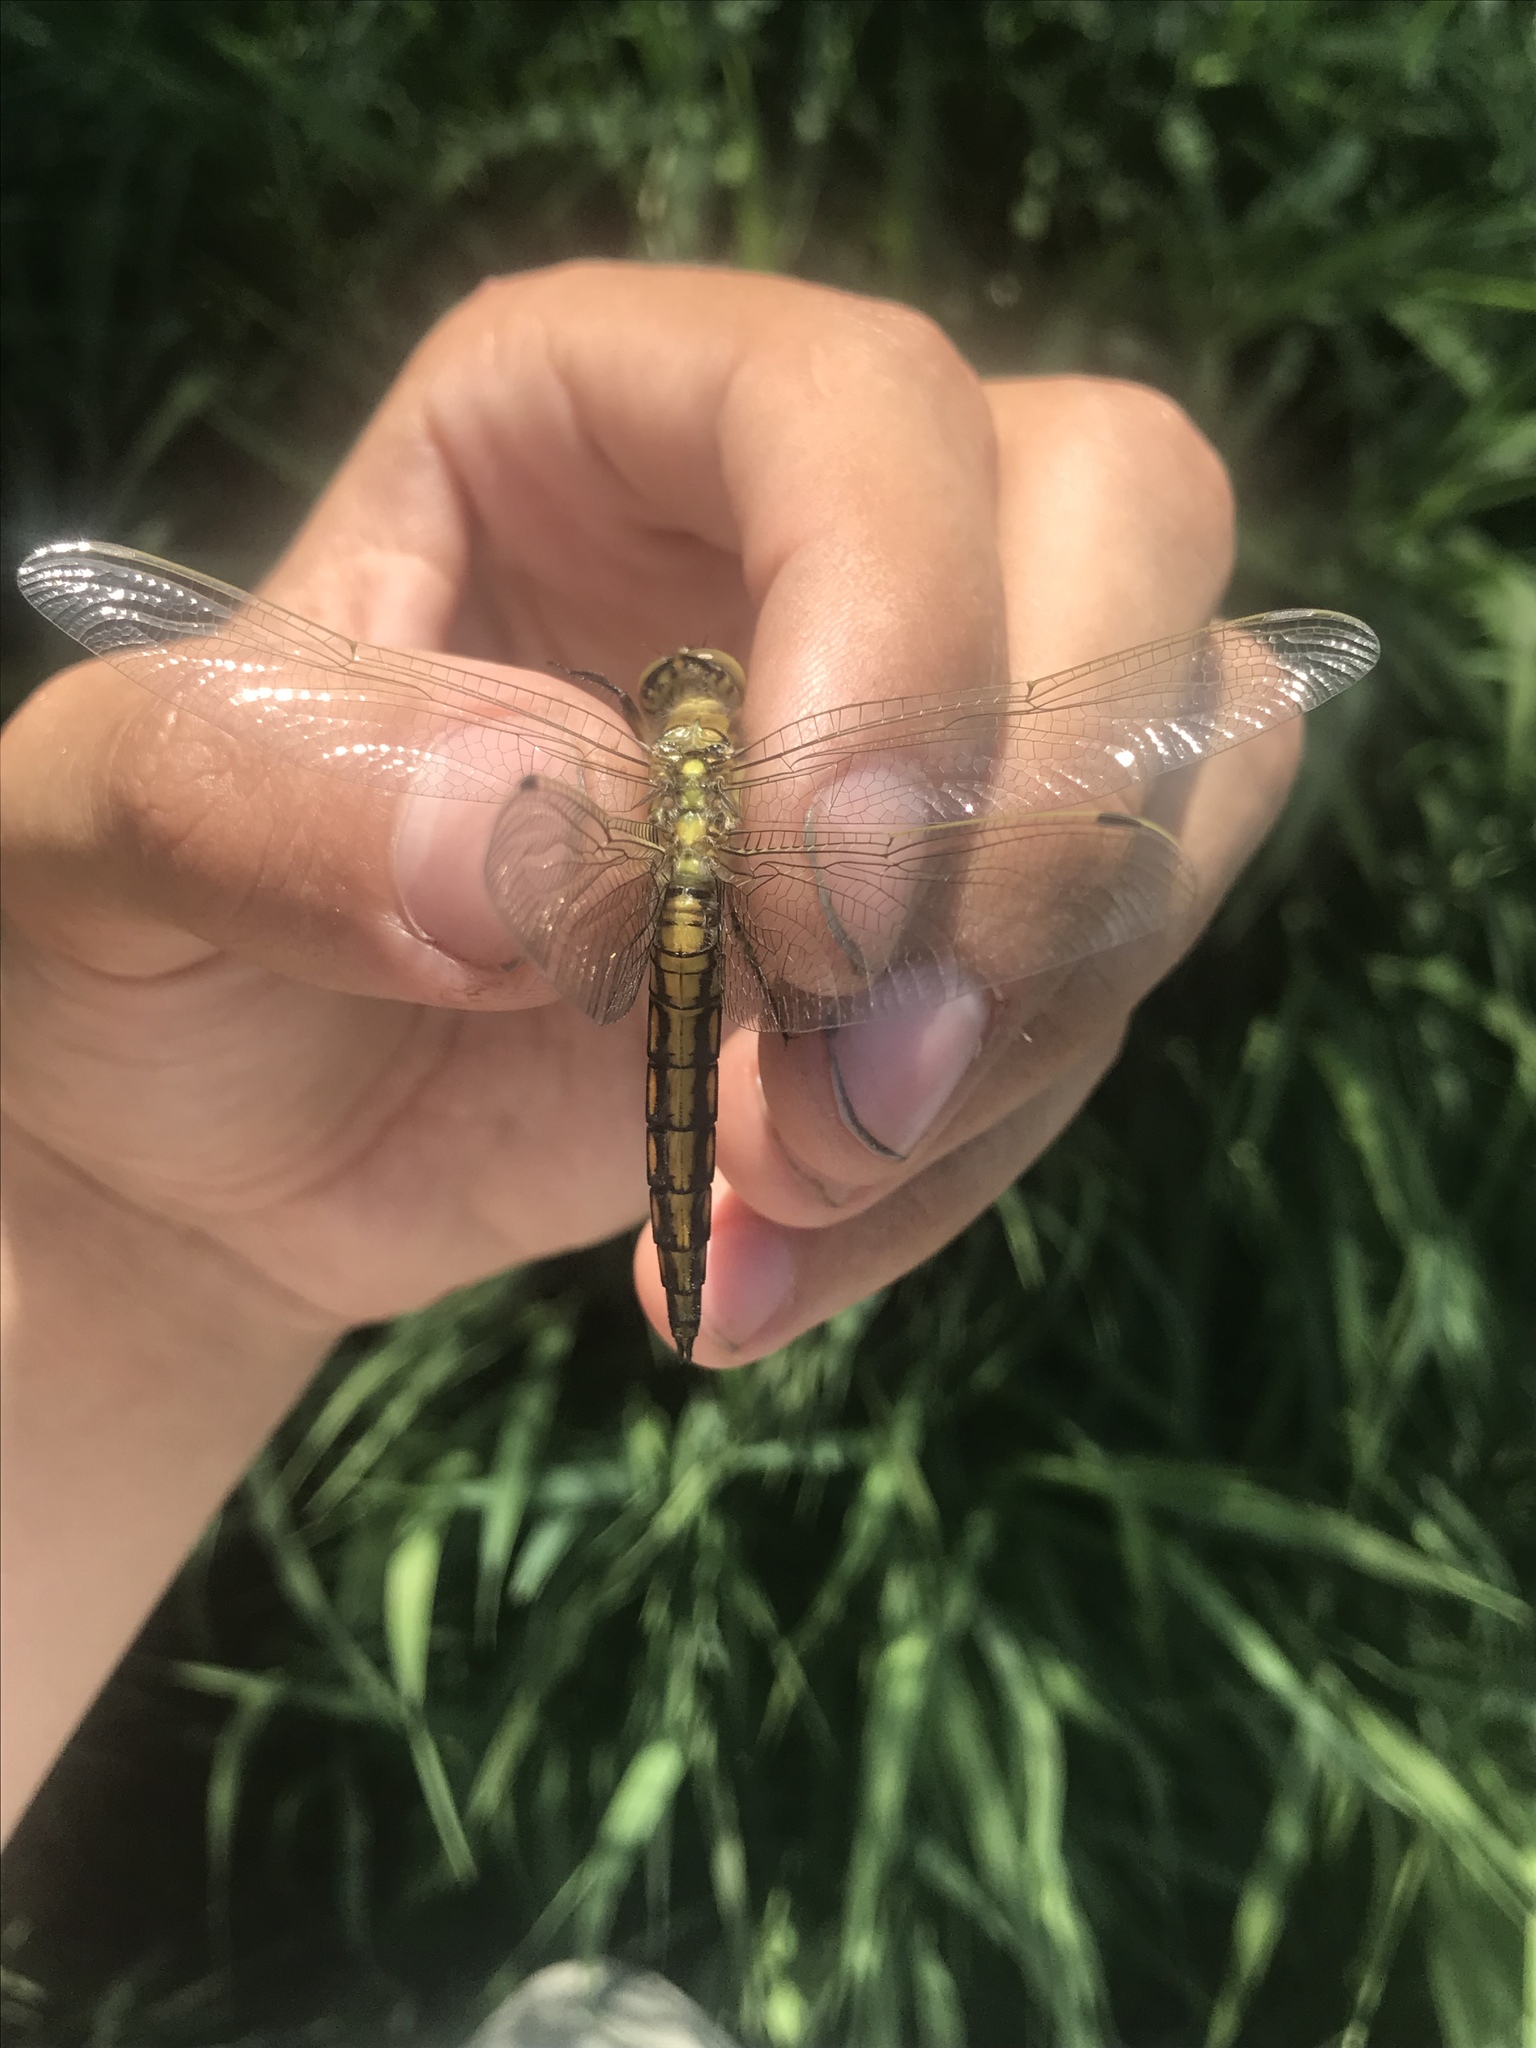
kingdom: Animalia
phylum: Arthropoda
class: Insecta
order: Odonata
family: Libellulidae
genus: Orthetrum
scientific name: Orthetrum cancellatum
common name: Black-tailed skimmer
